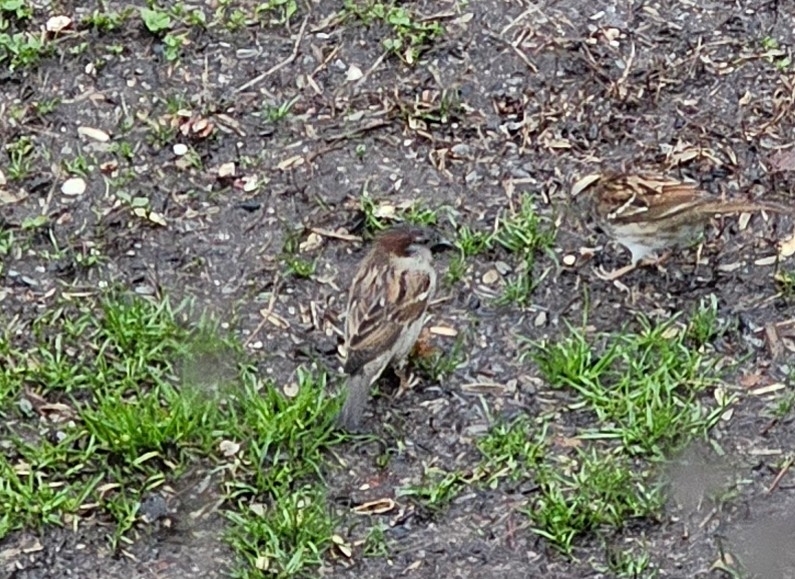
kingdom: Animalia
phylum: Chordata
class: Aves
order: Passeriformes
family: Passeridae
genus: Passer
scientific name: Passer domesticus
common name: House sparrow
